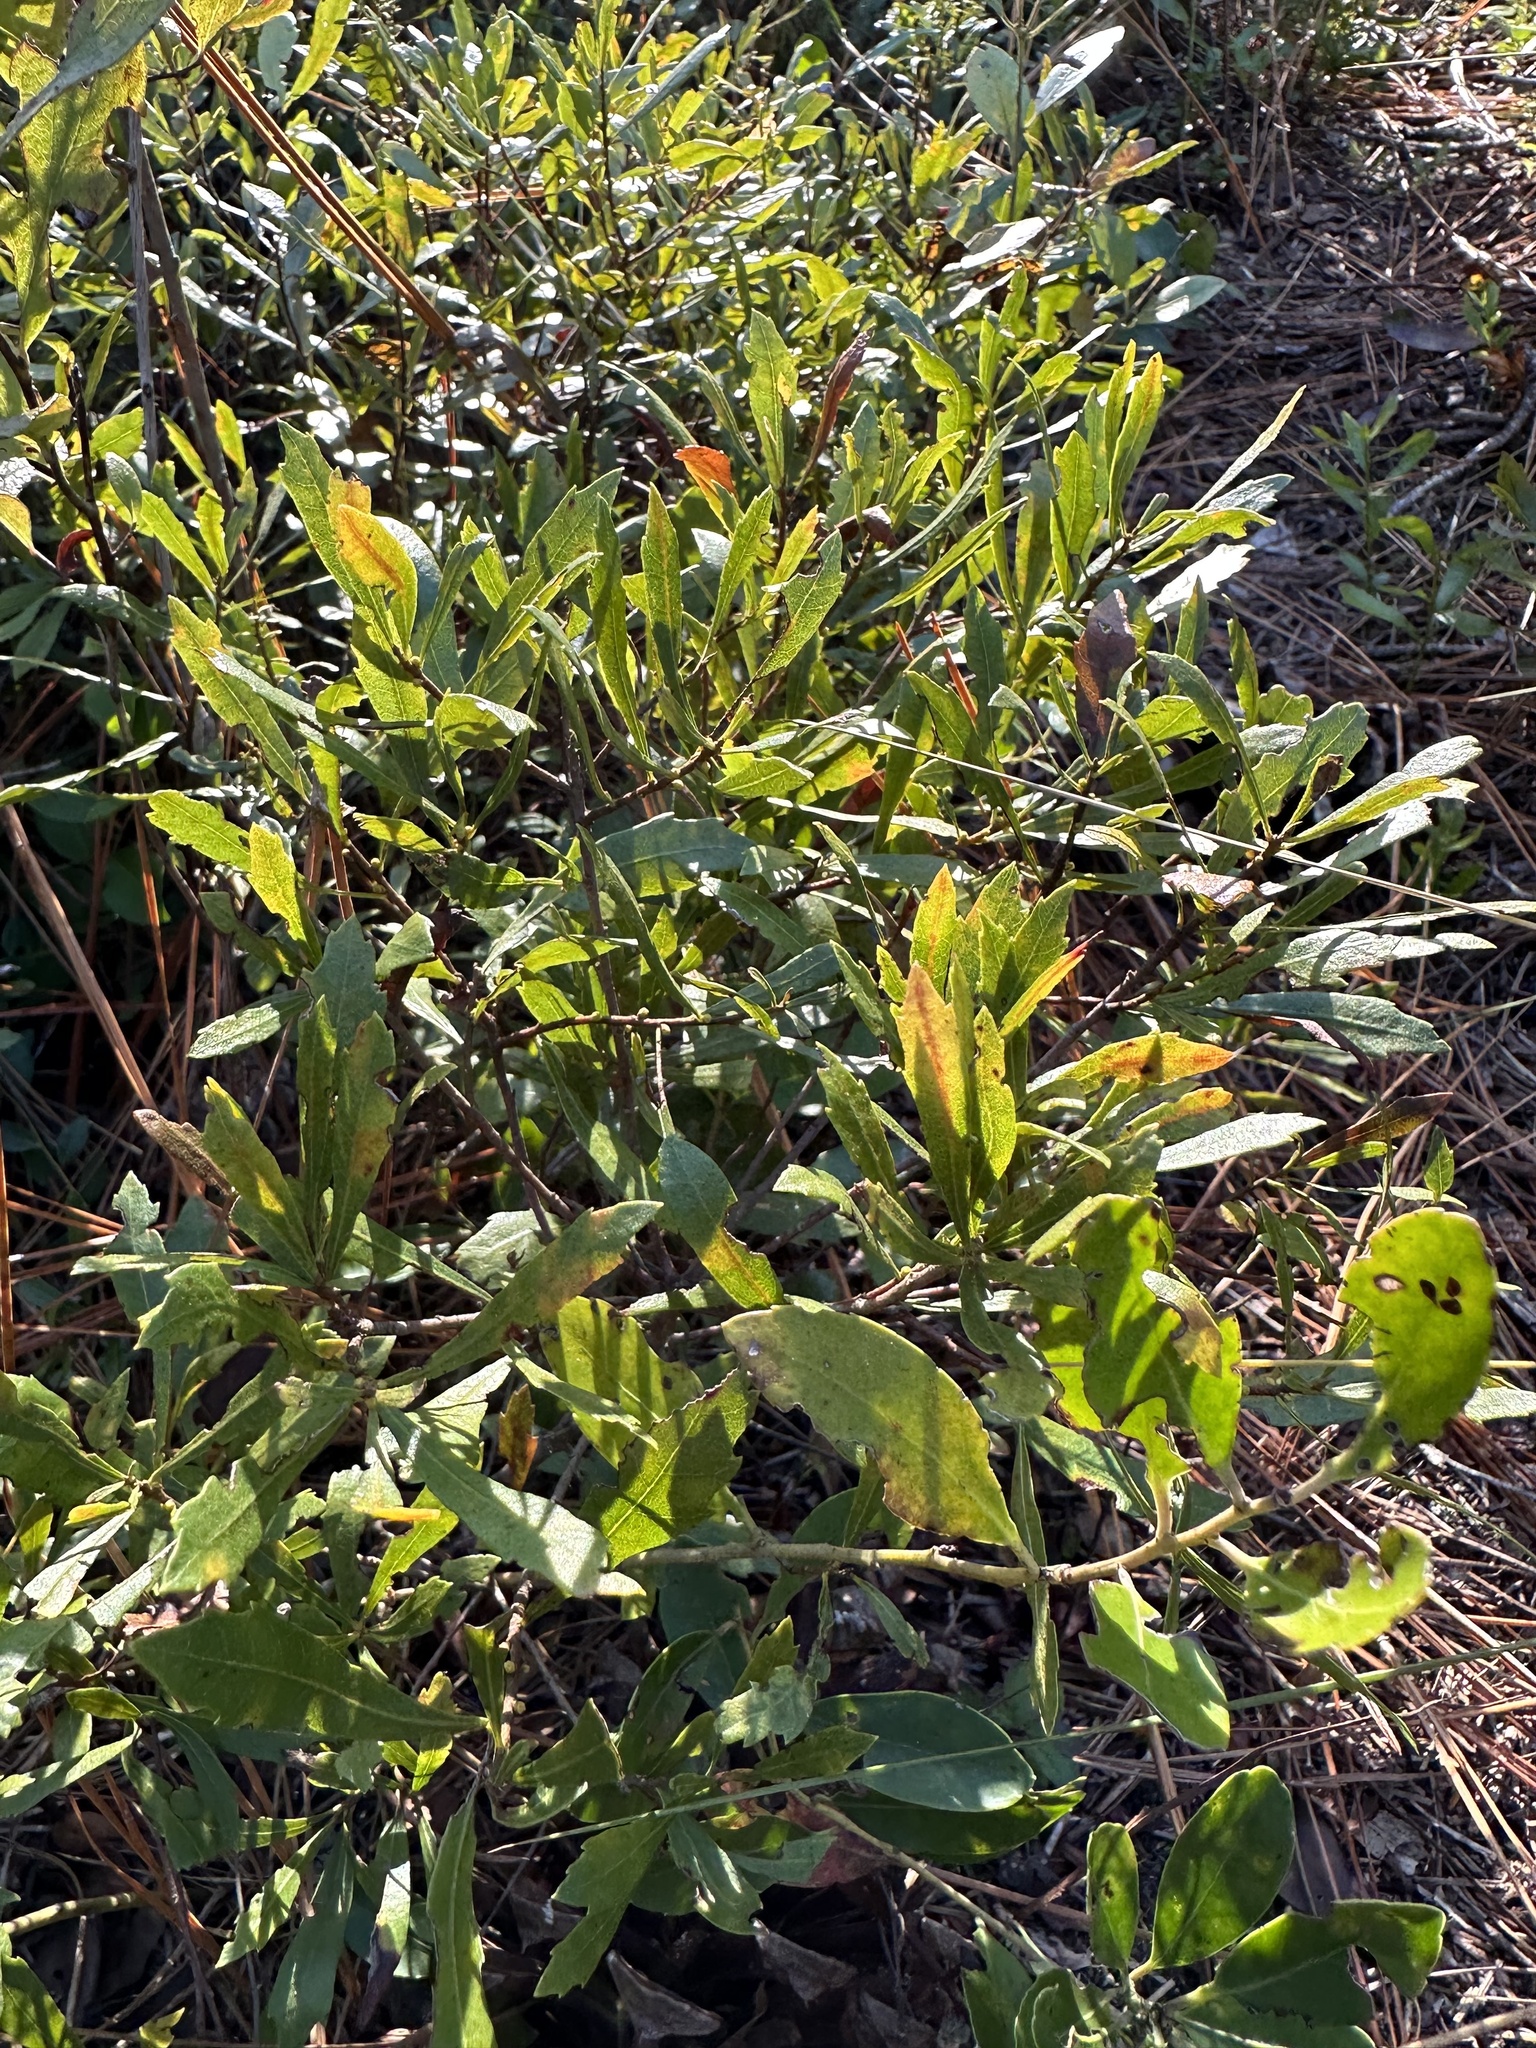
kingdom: Plantae
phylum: Tracheophyta
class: Magnoliopsida
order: Fagales
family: Myricaceae
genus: Morella
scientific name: Morella cerifera
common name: Wax myrtle
